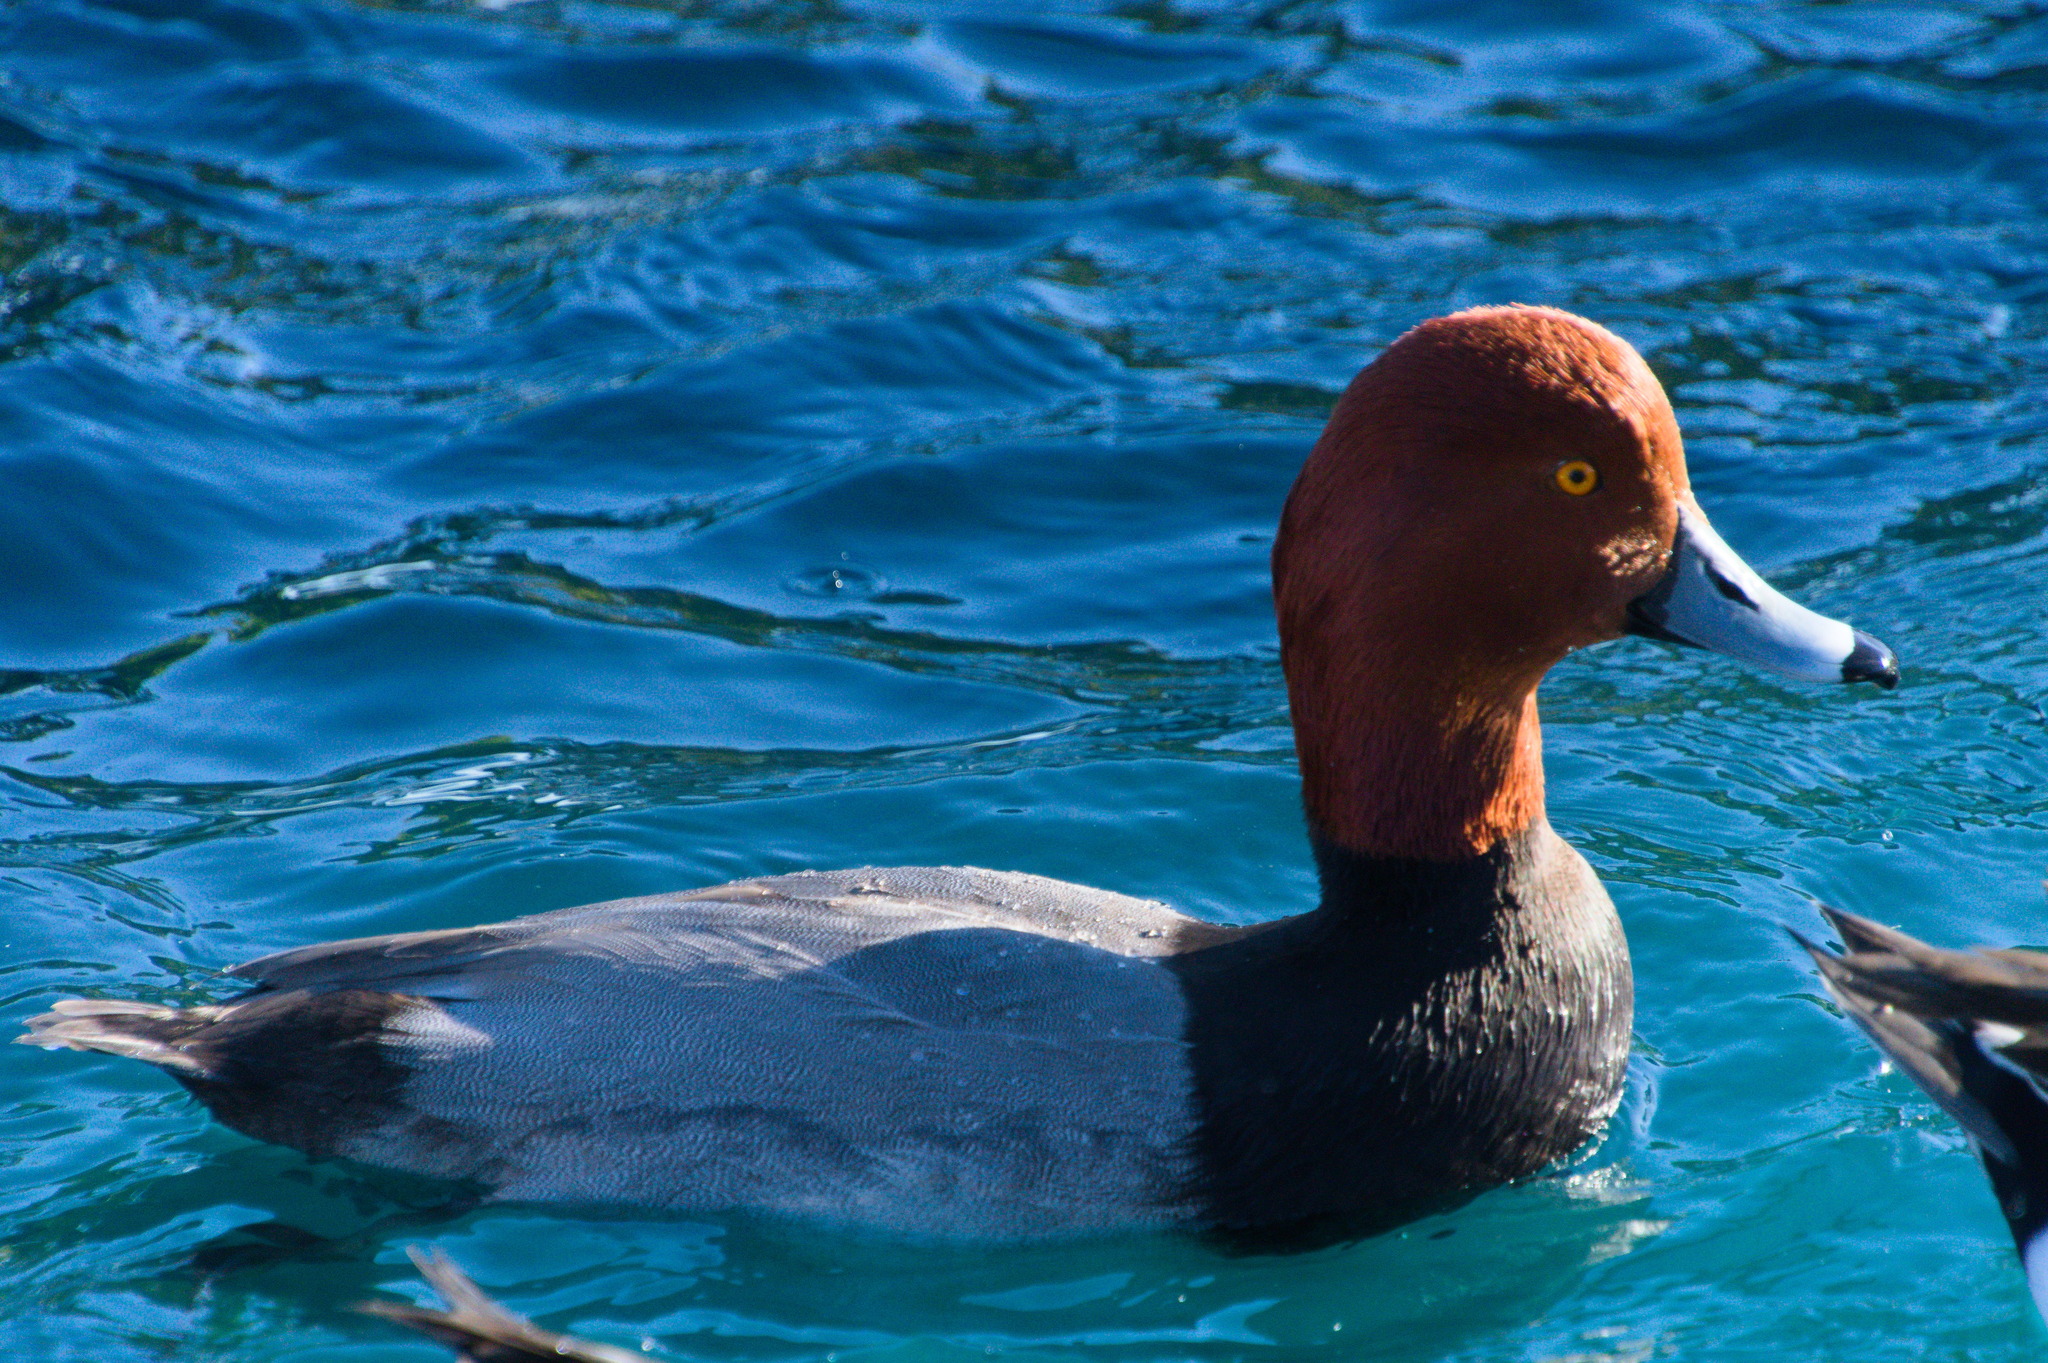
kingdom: Animalia
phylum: Chordata
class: Aves
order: Anseriformes
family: Anatidae
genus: Aythya
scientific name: Aythya americana
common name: Redhead
